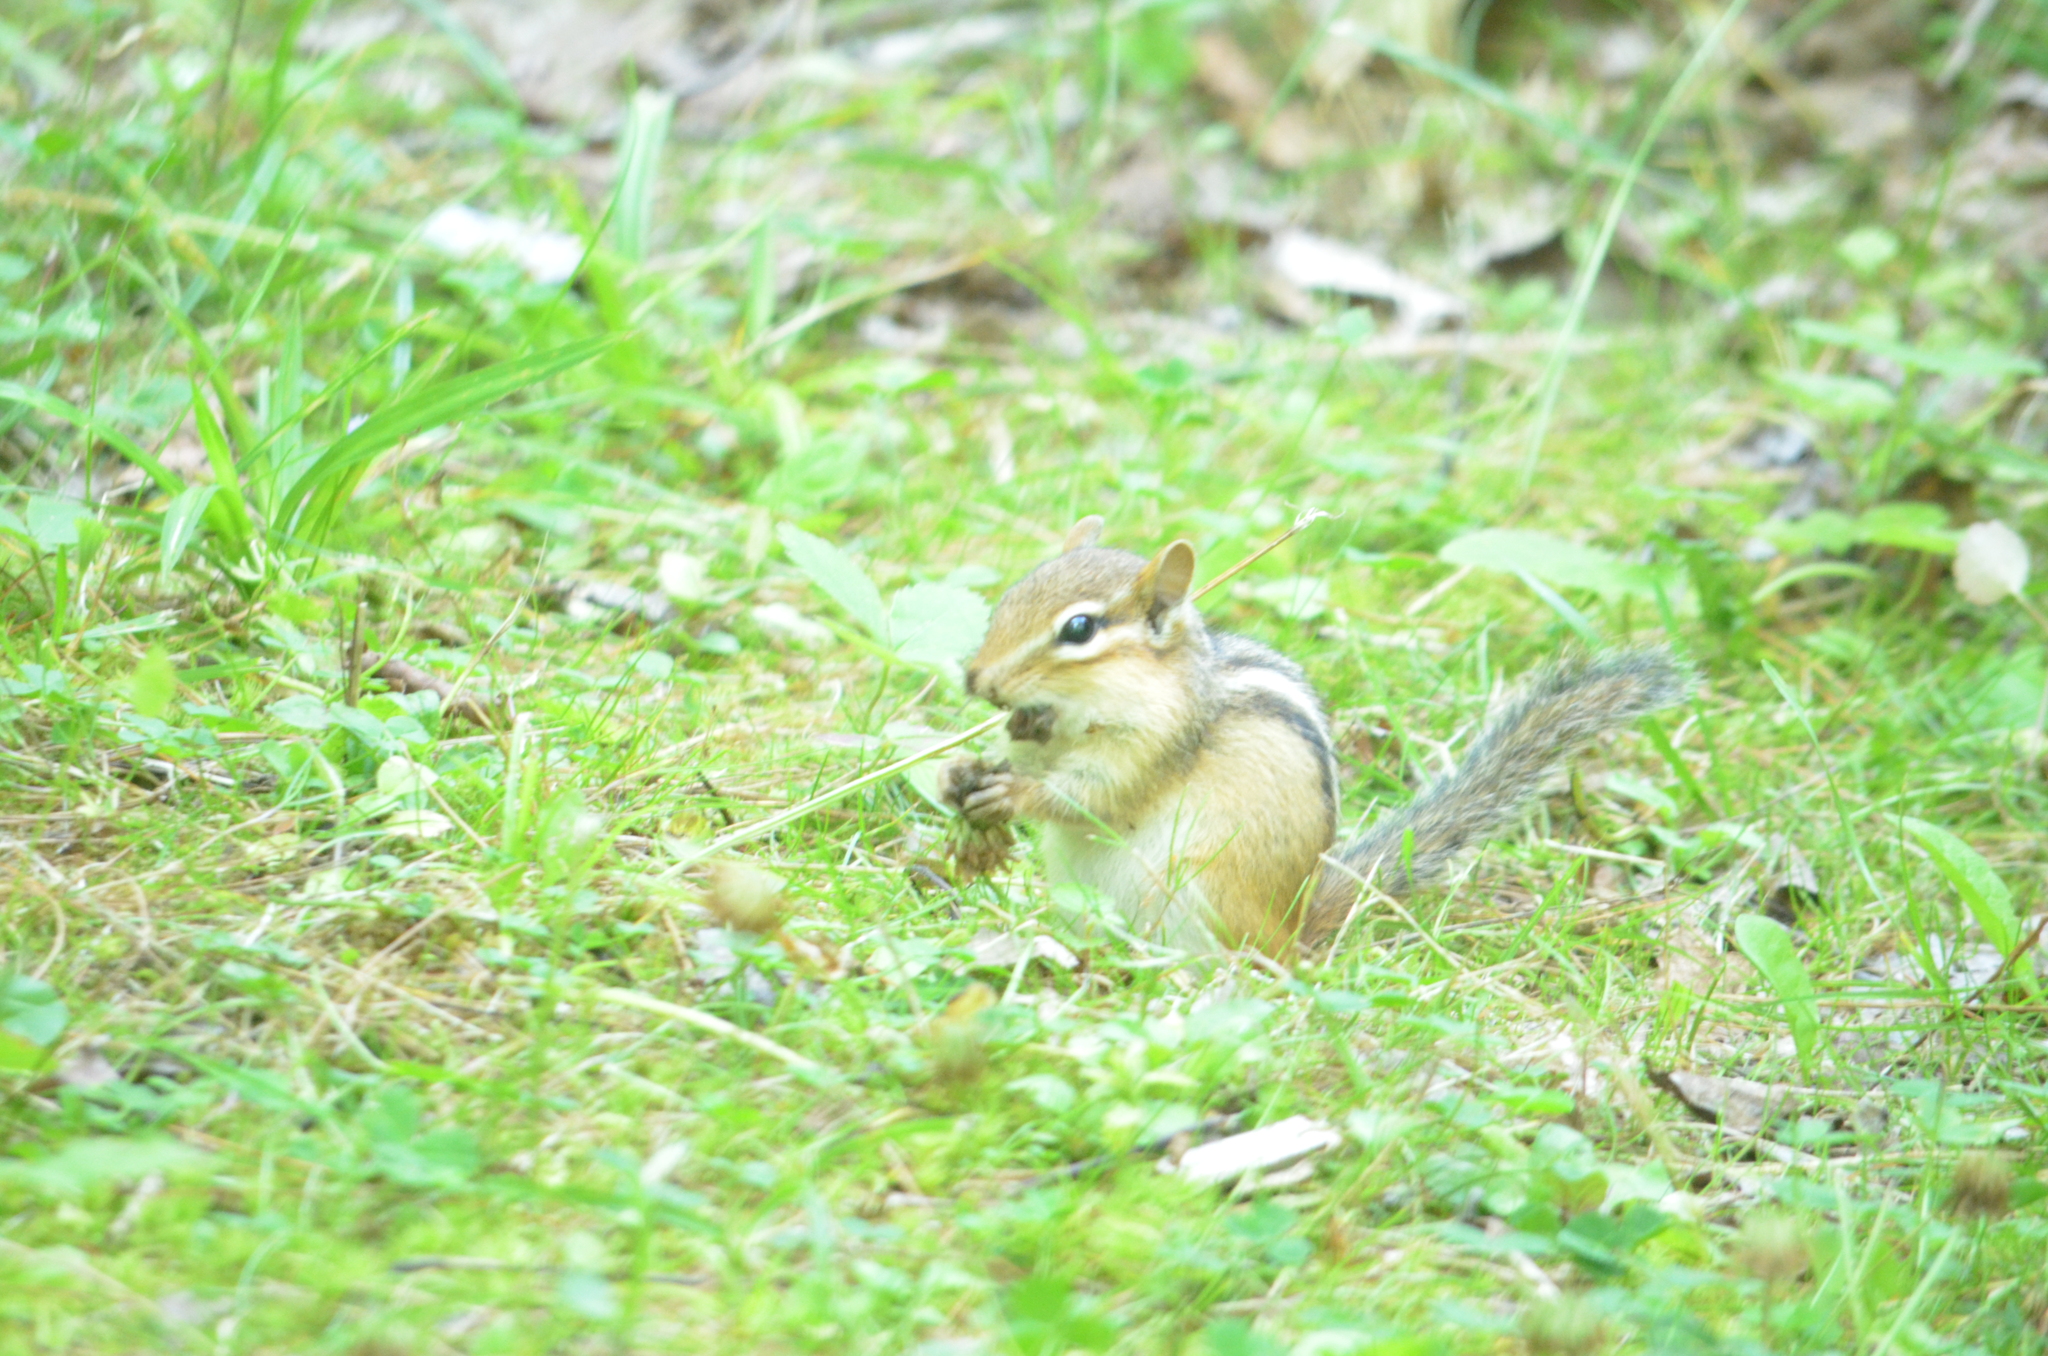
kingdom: Animalia
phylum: Chordata
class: Mammalia
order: Rodentia
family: Sciuridae
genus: Tamias
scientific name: Tamias striatus
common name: Eastern chipmunk
